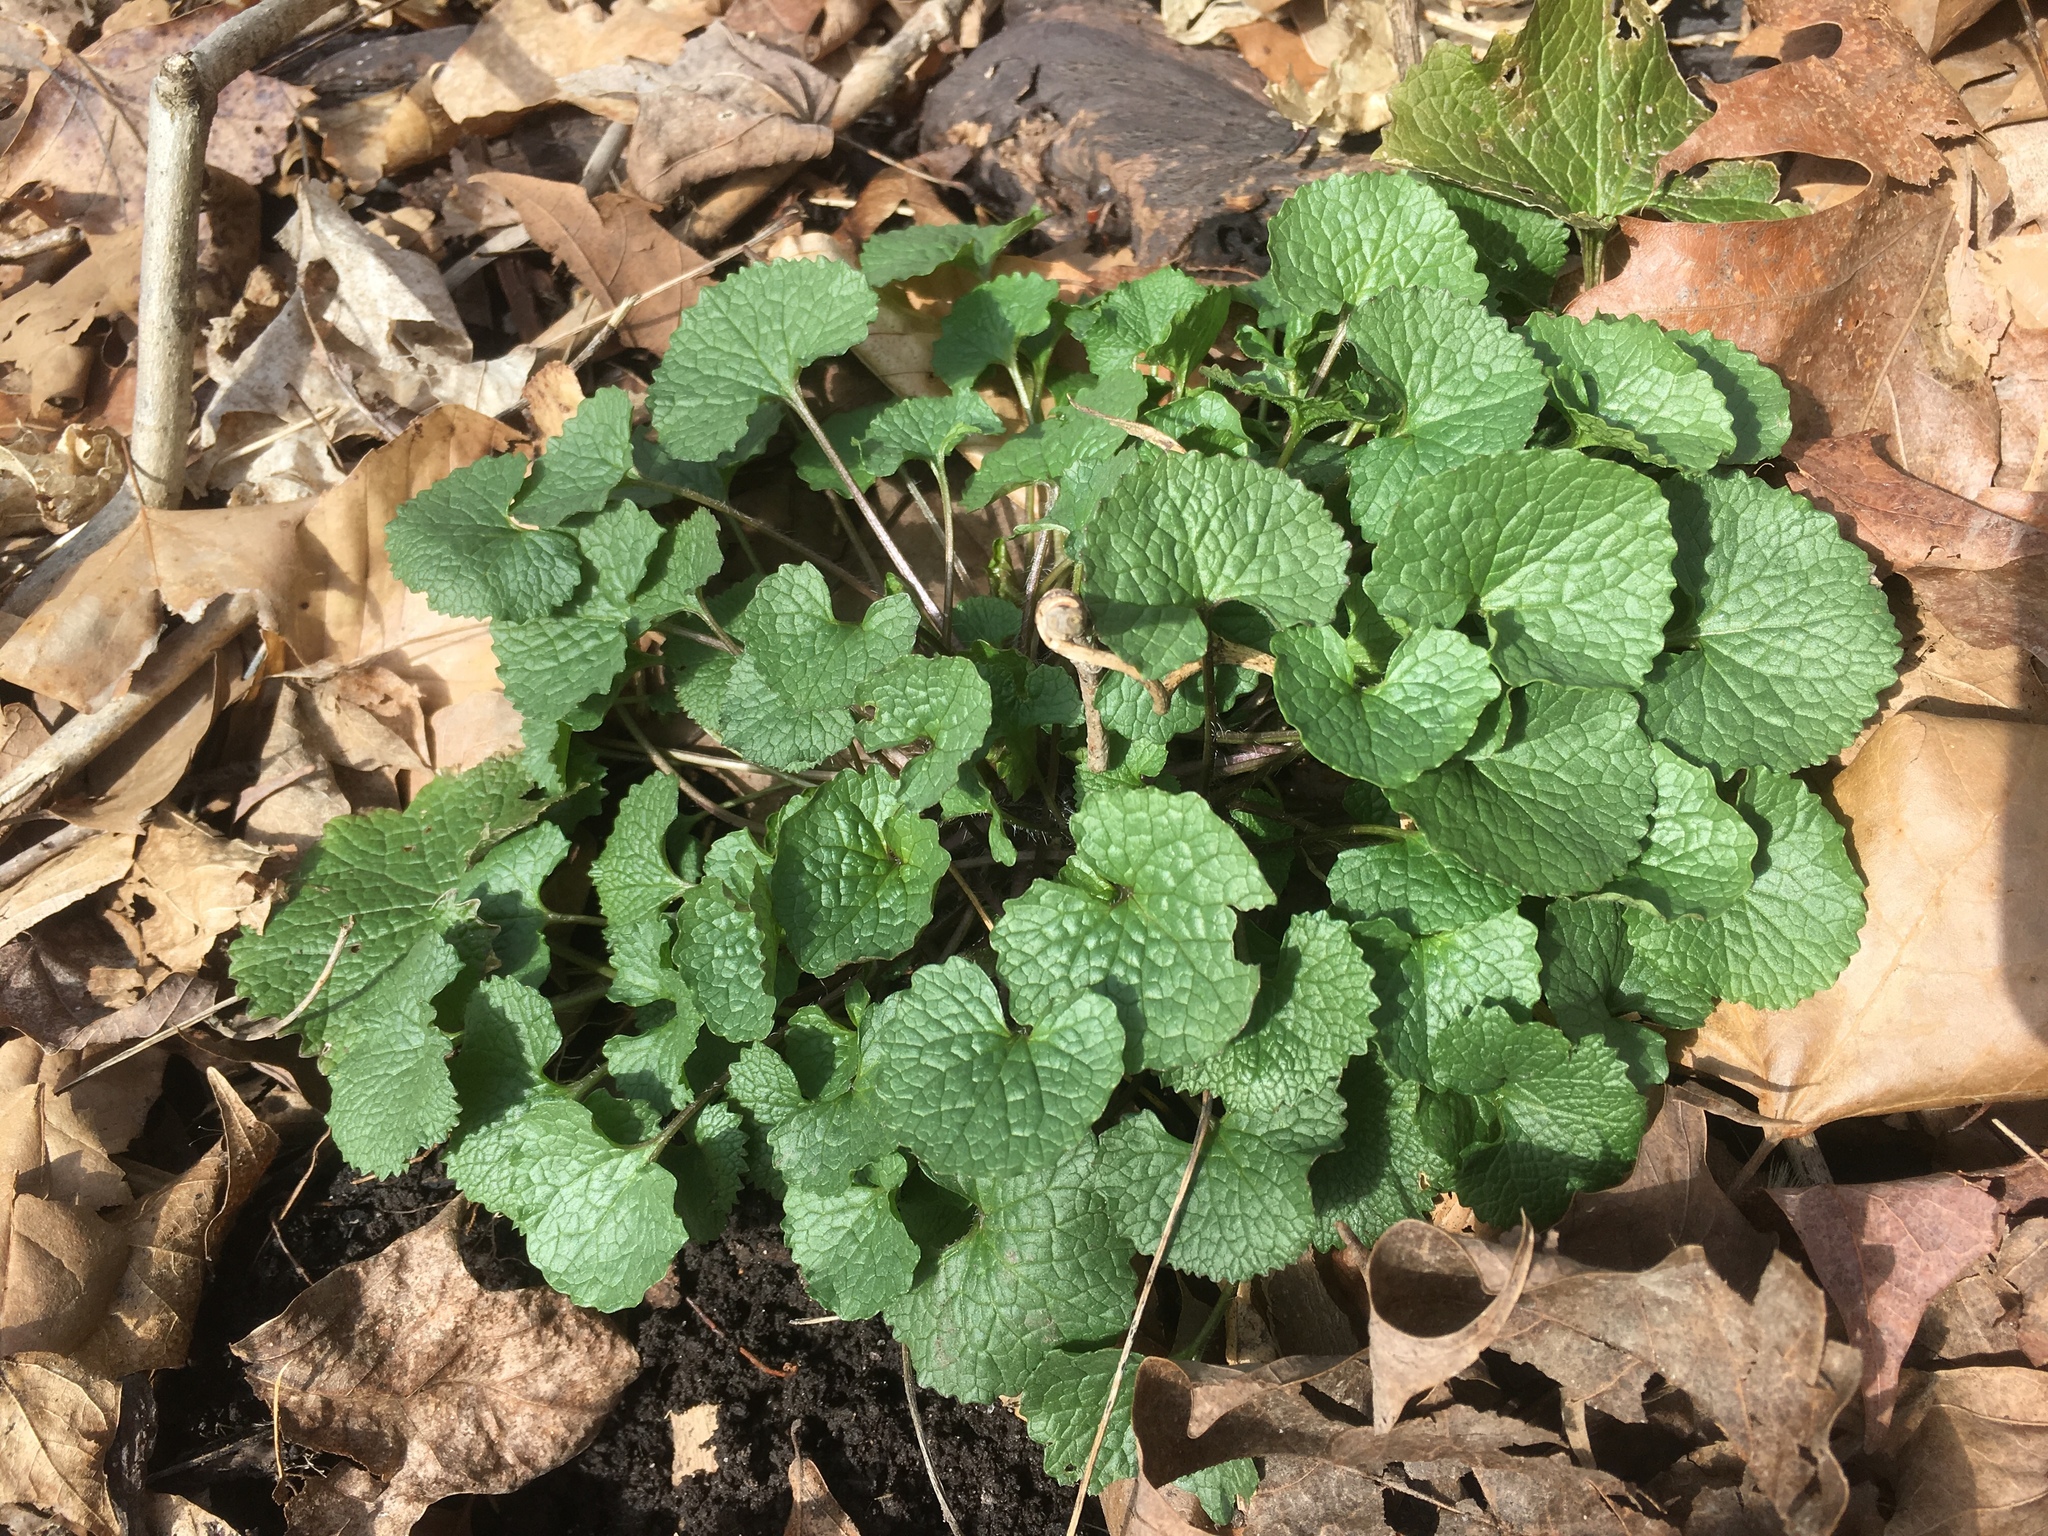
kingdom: Plantae
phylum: Tracheophyta
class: Magnoliopsida
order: Brassicales
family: Brassicaceae
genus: Alliaria
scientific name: Alliaria petiolata
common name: Garlic mustard
